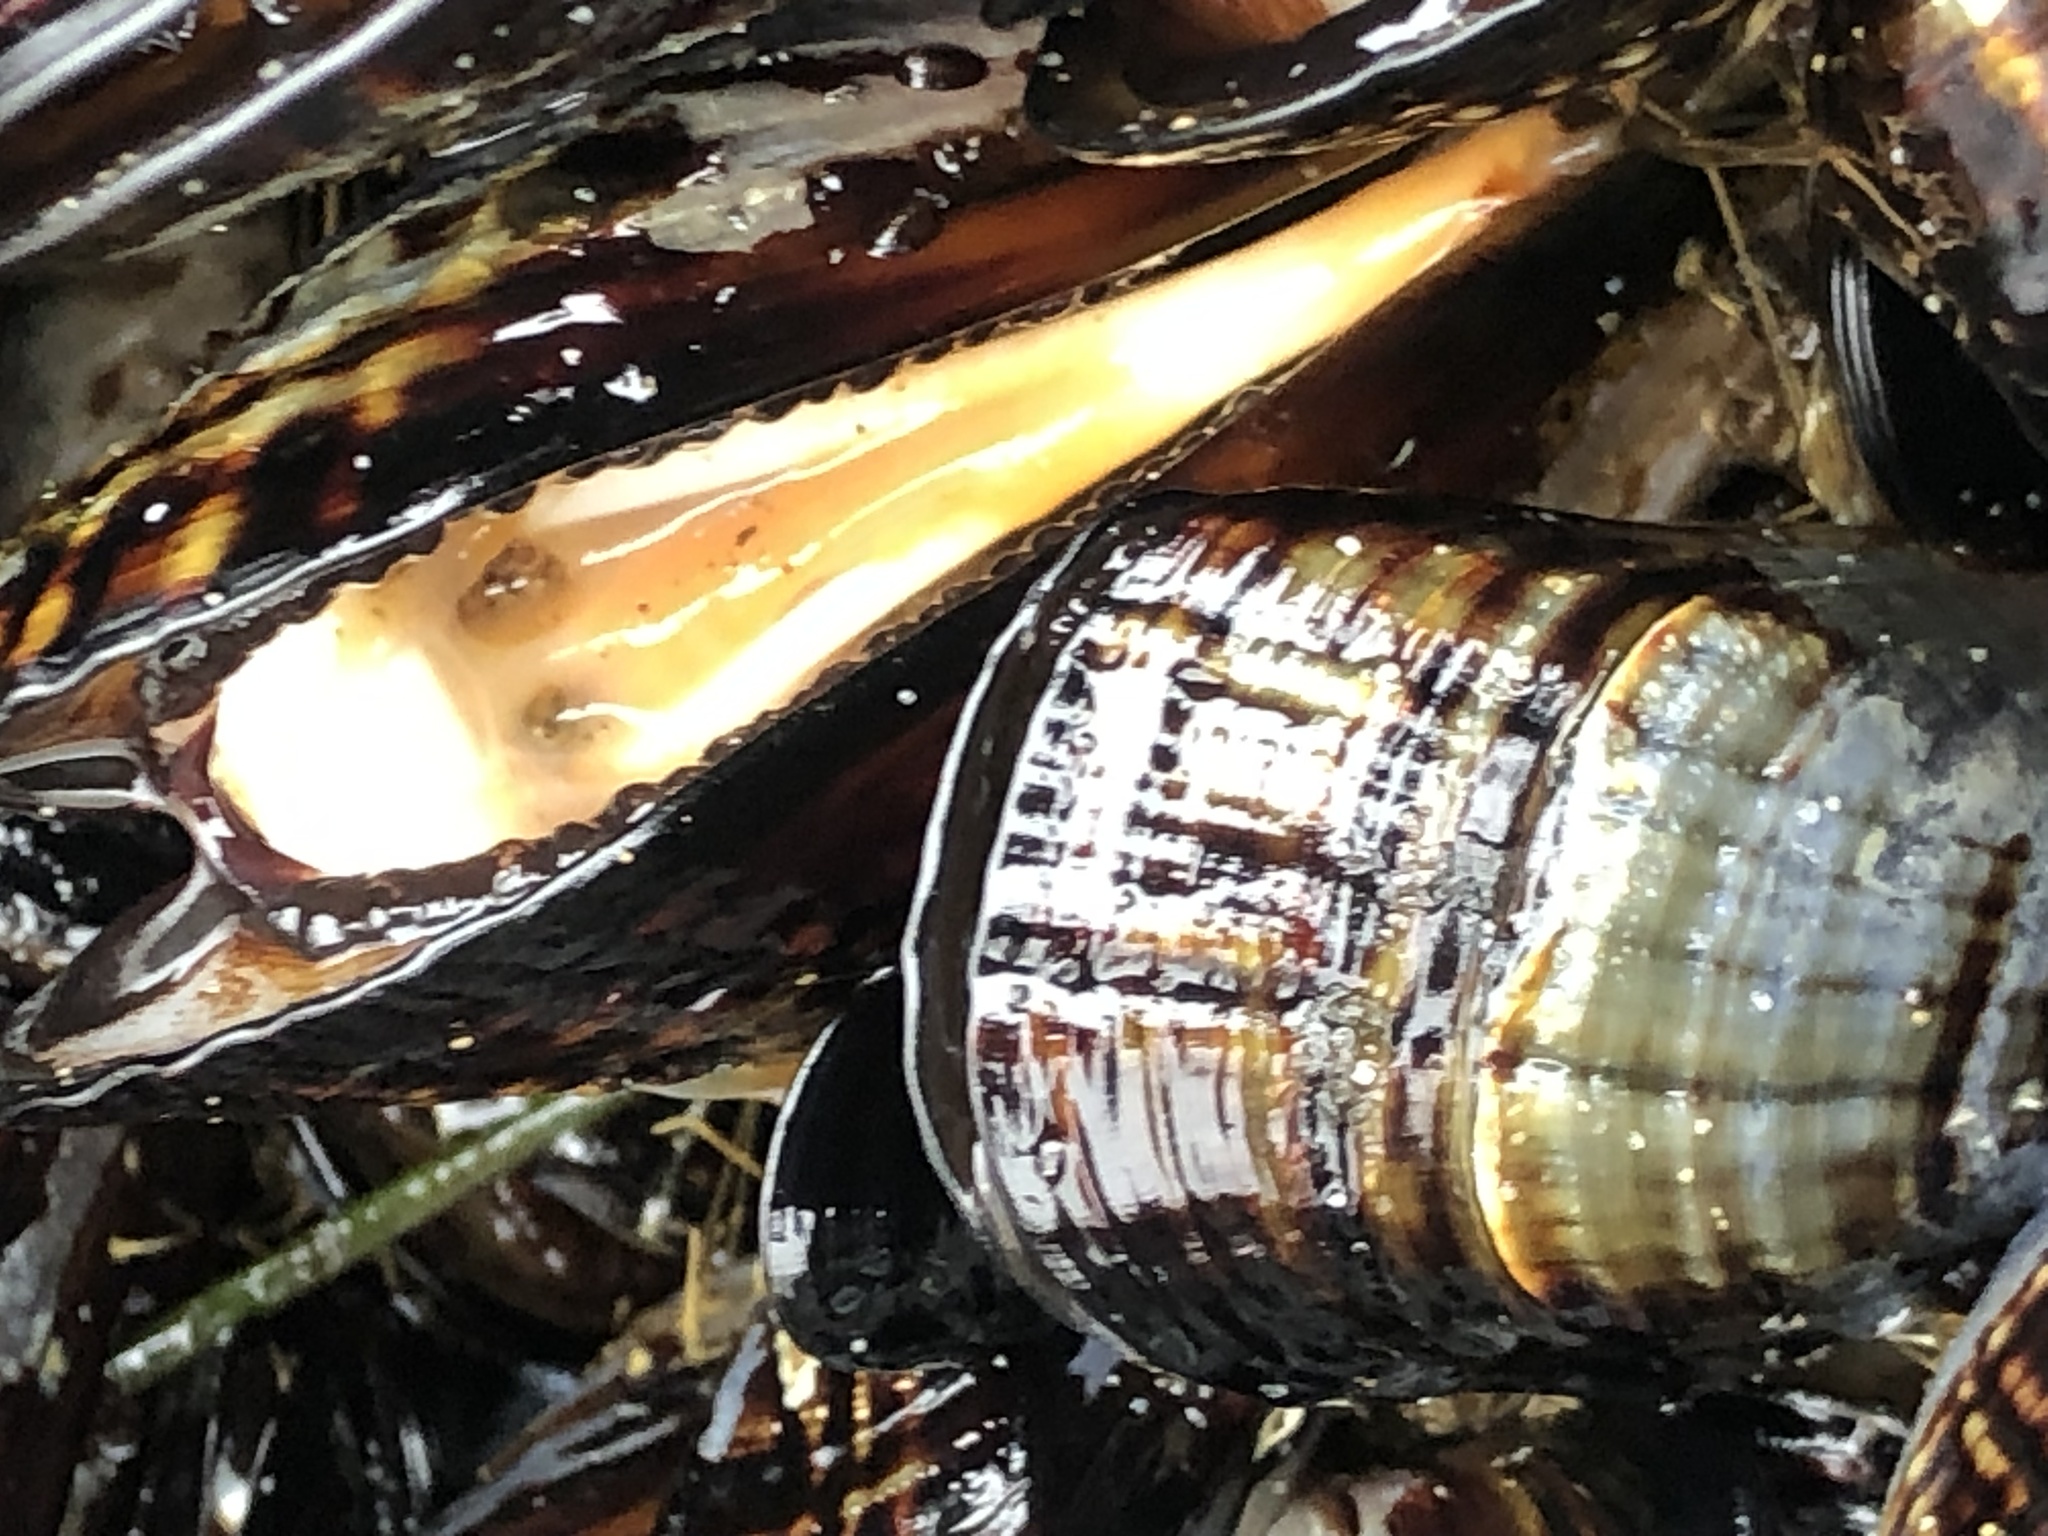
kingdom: Animalia
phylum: Mollusca
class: Bivalvia
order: Mytilida
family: Mytilidae
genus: Mytilus
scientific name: Mytilus californianus
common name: California mussel
